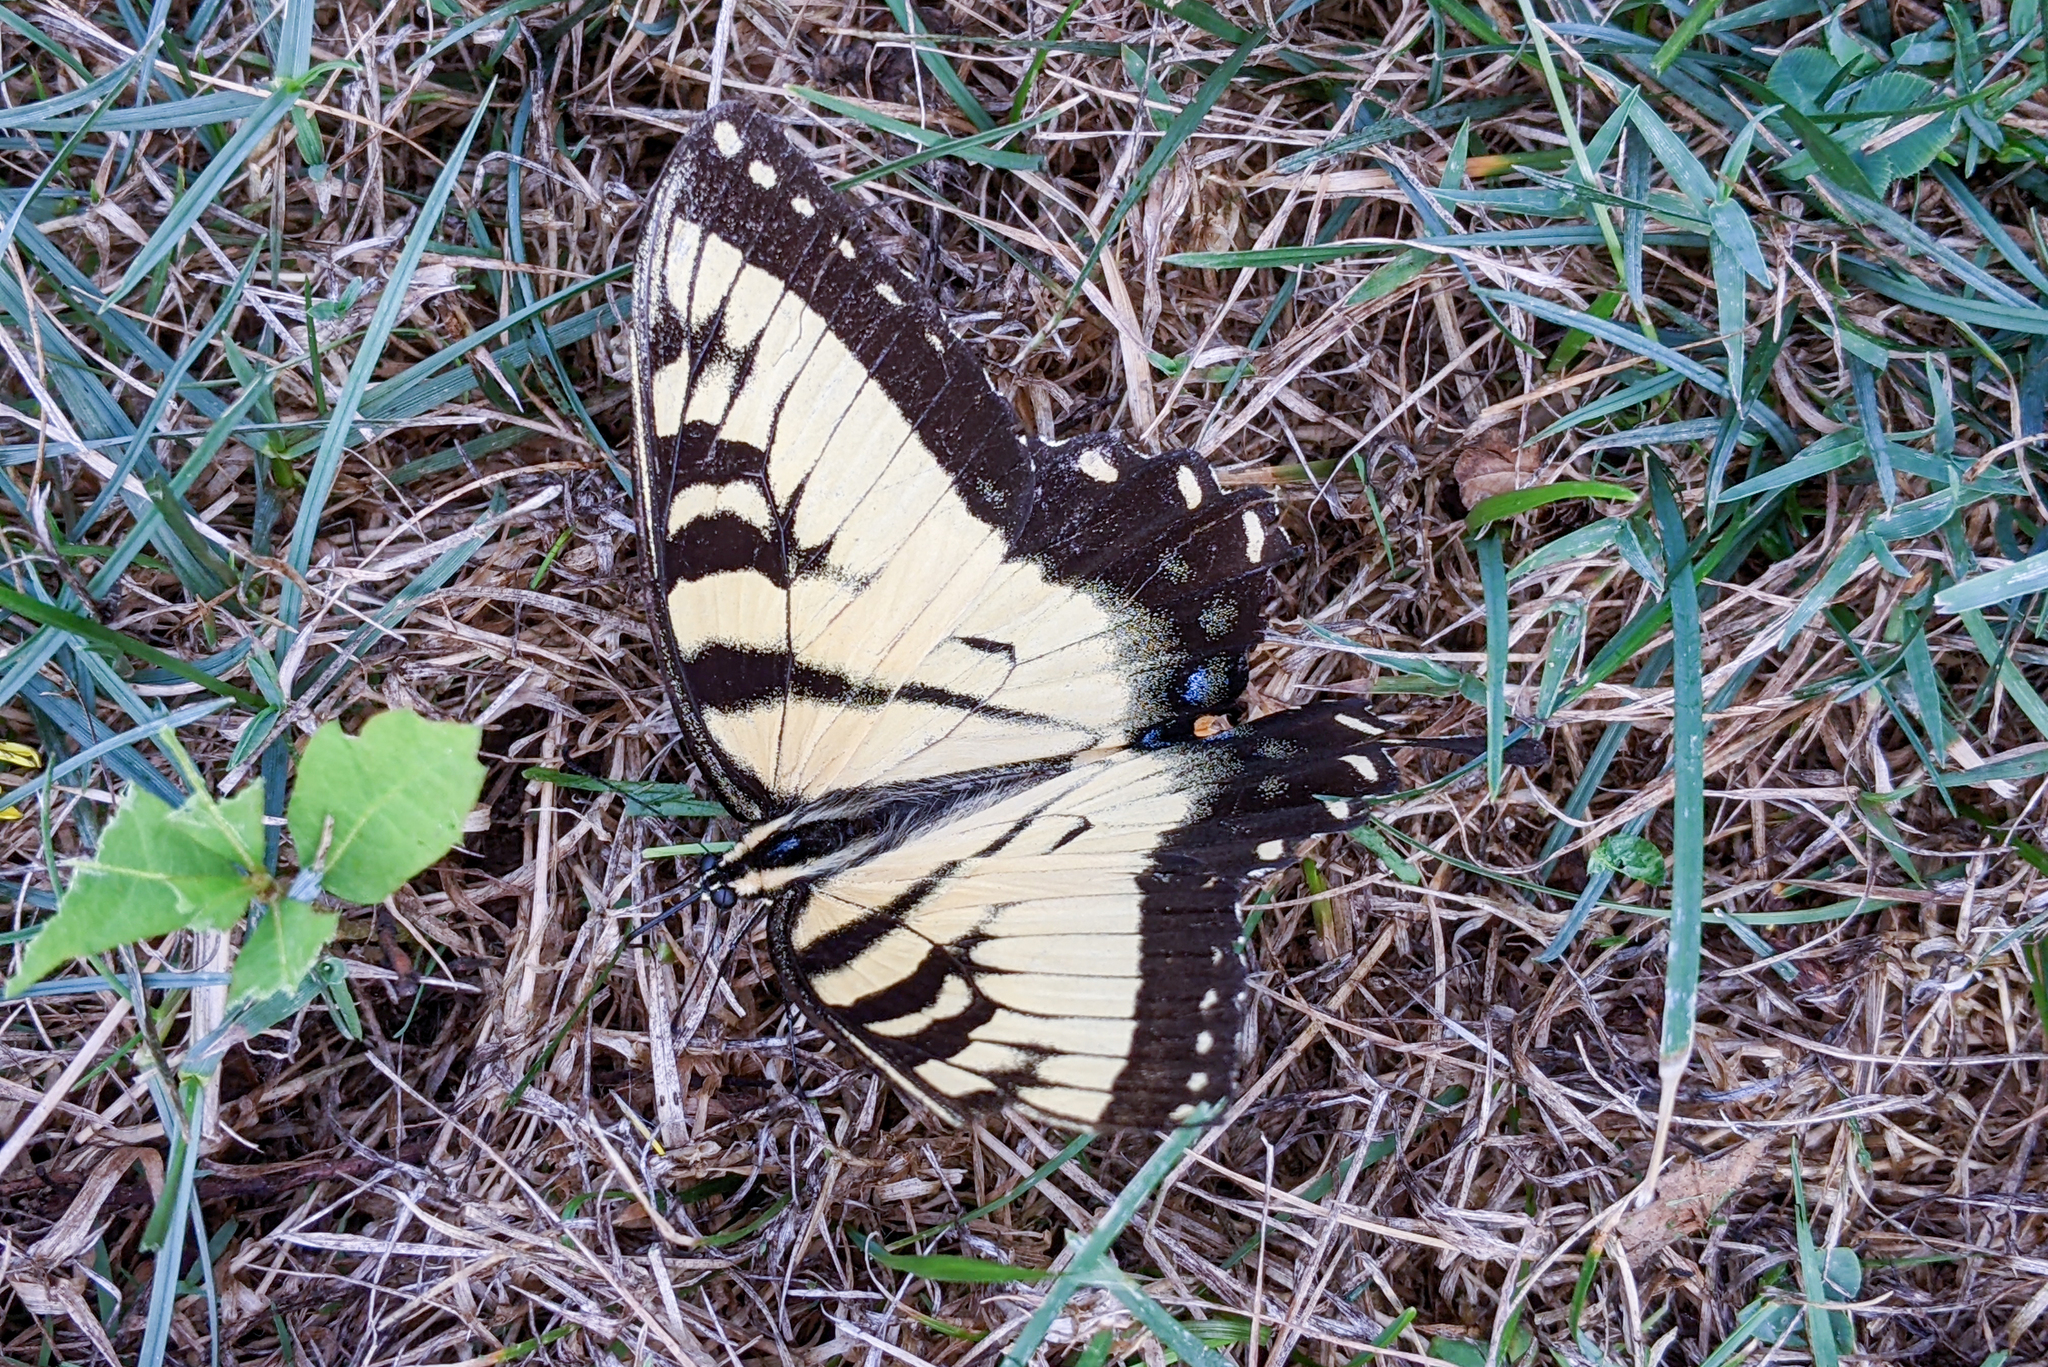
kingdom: Animalia
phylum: Arthropoda
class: Insecta
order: Lepidoptera
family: Papilionidae
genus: Papilio
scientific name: Papilio glaucus
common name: Tiger swallowtail
